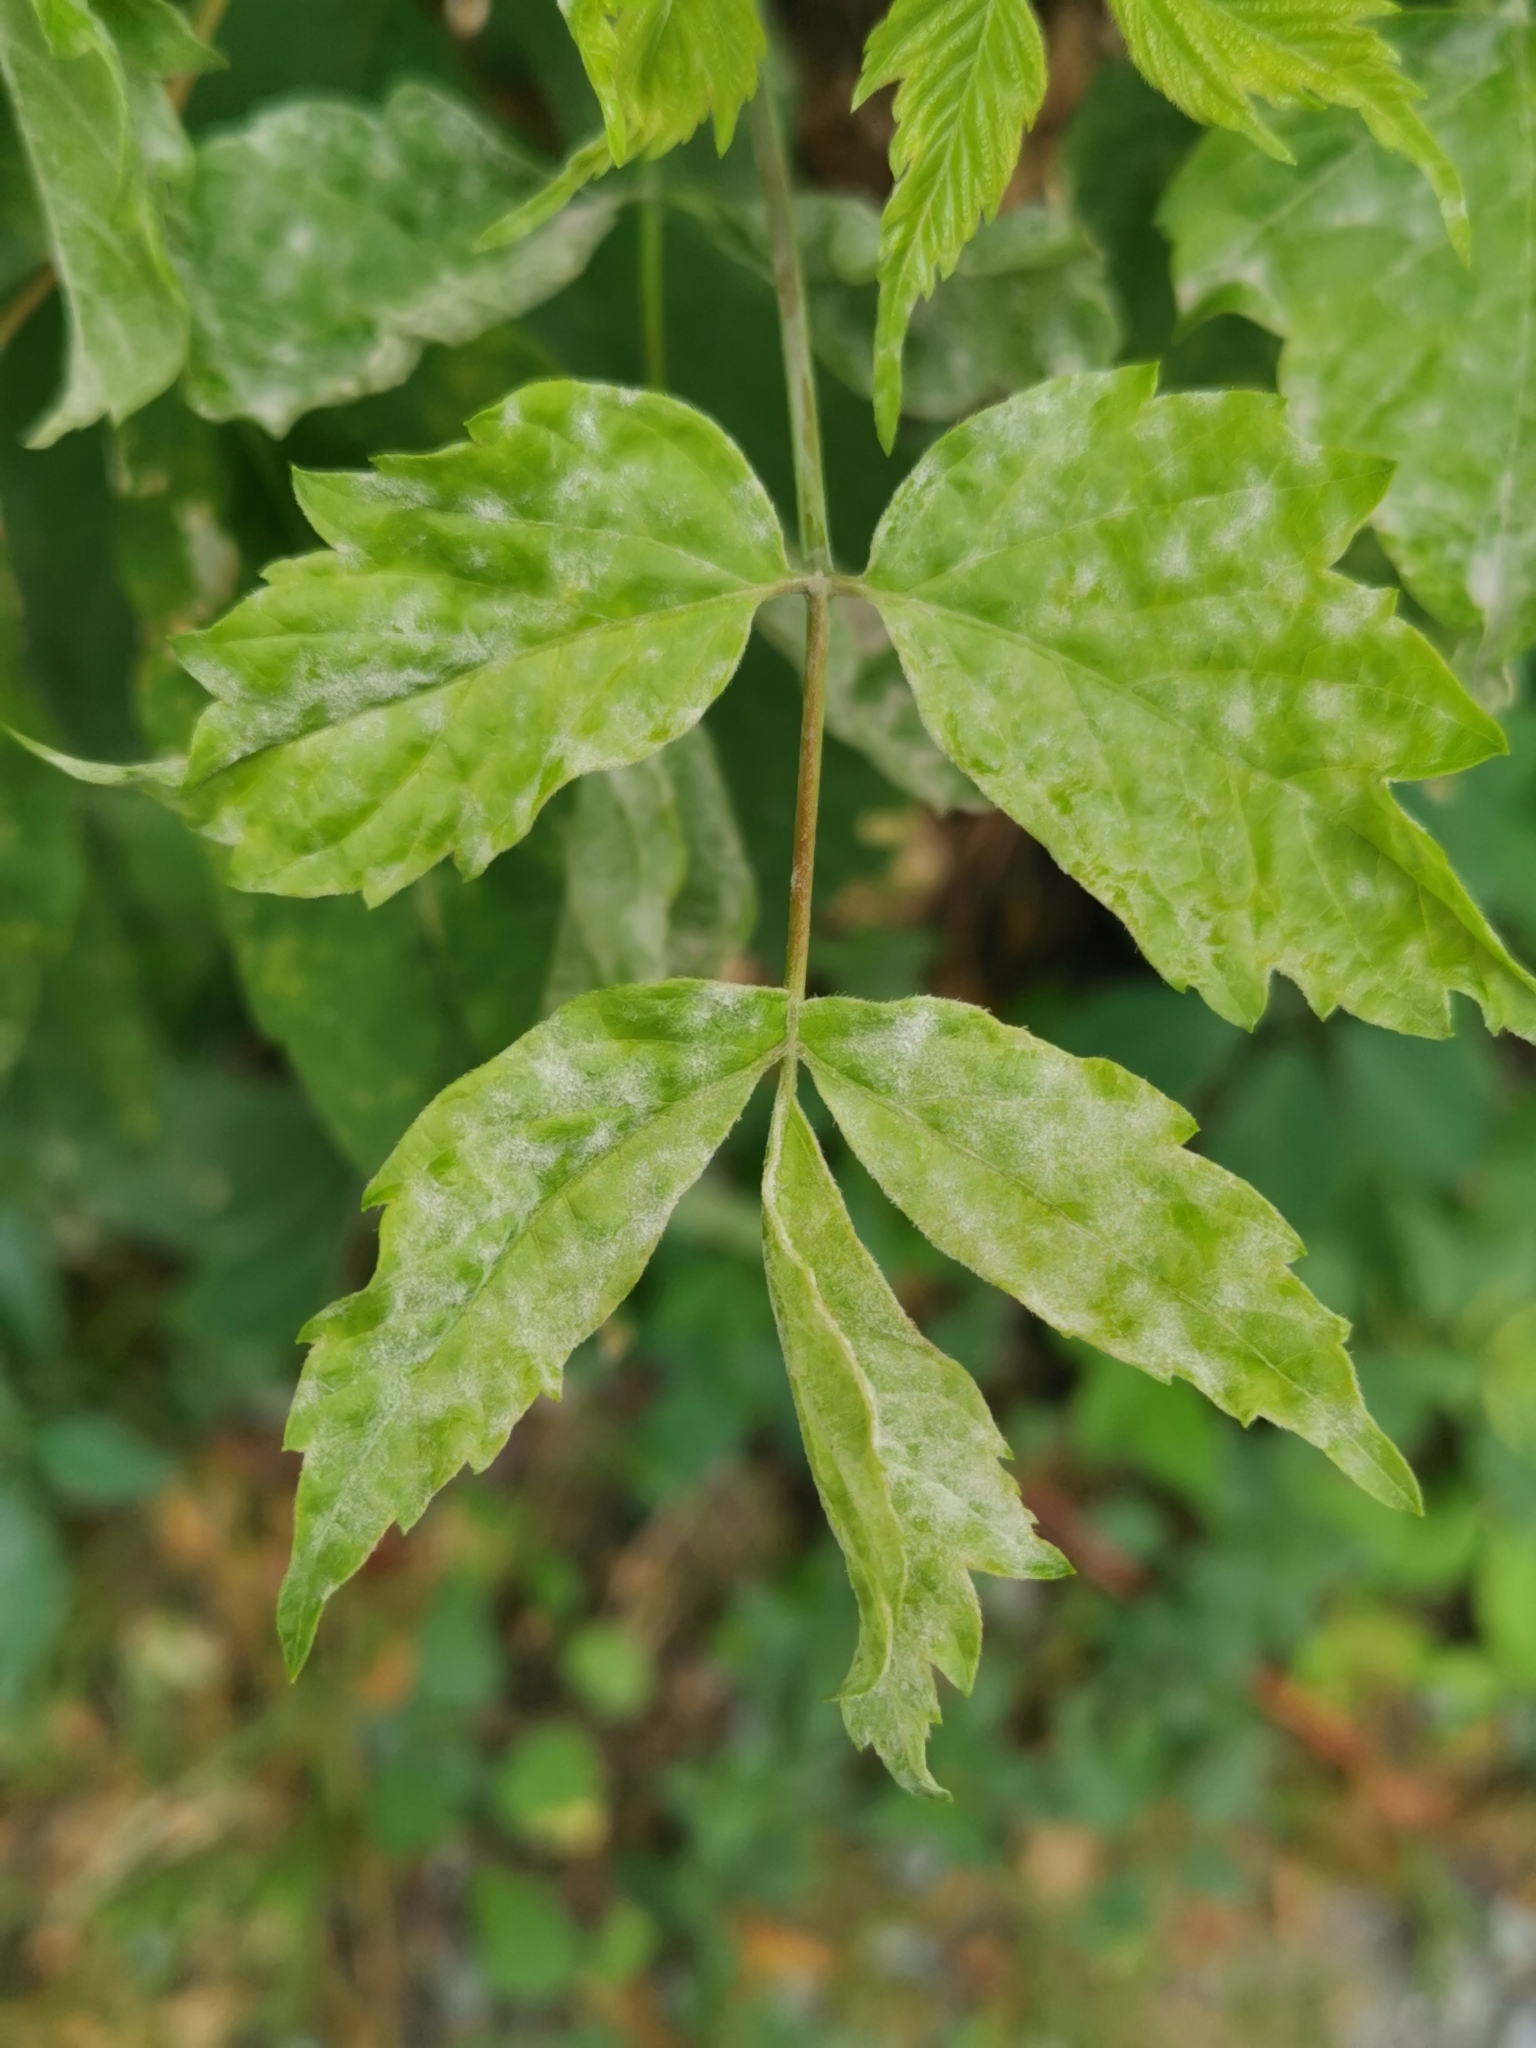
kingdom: Fungi
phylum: Ascomycota
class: Leotiomycetes
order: Helotiales
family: Erysiphaceae
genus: Sawadaea
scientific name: Sawadaea bicornis
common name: Maple mildew
